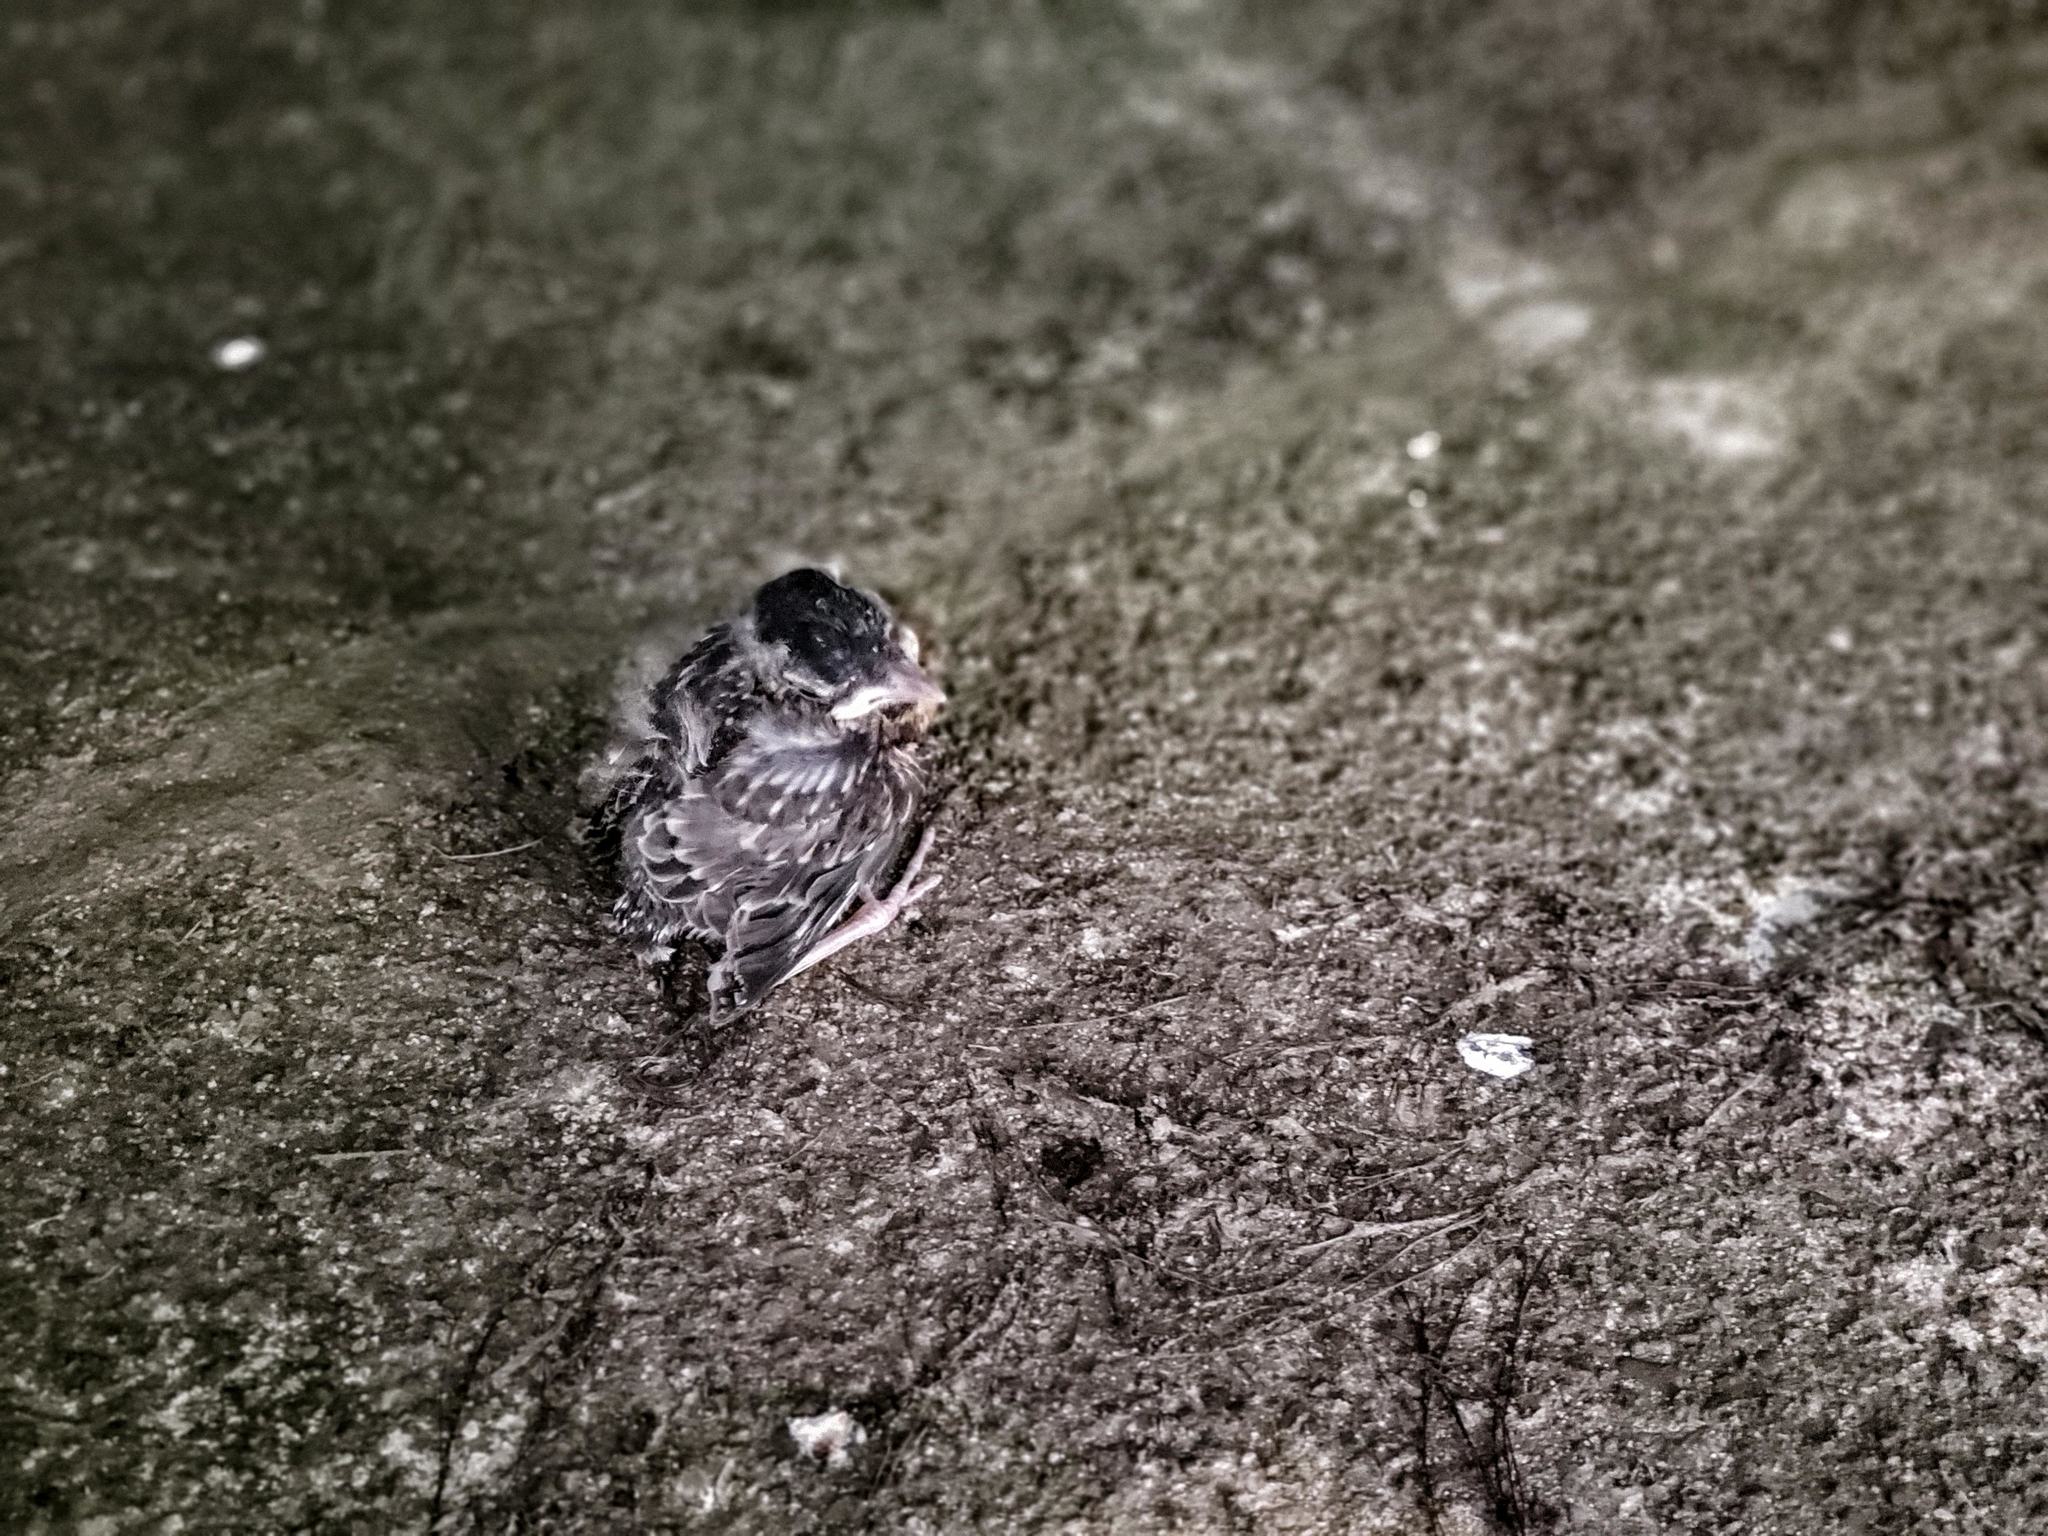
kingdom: Animalia
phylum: Chordata
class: Aves
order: Passeriformes
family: Turdidae
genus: Turdus
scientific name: Turdus migratorius
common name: American robin
